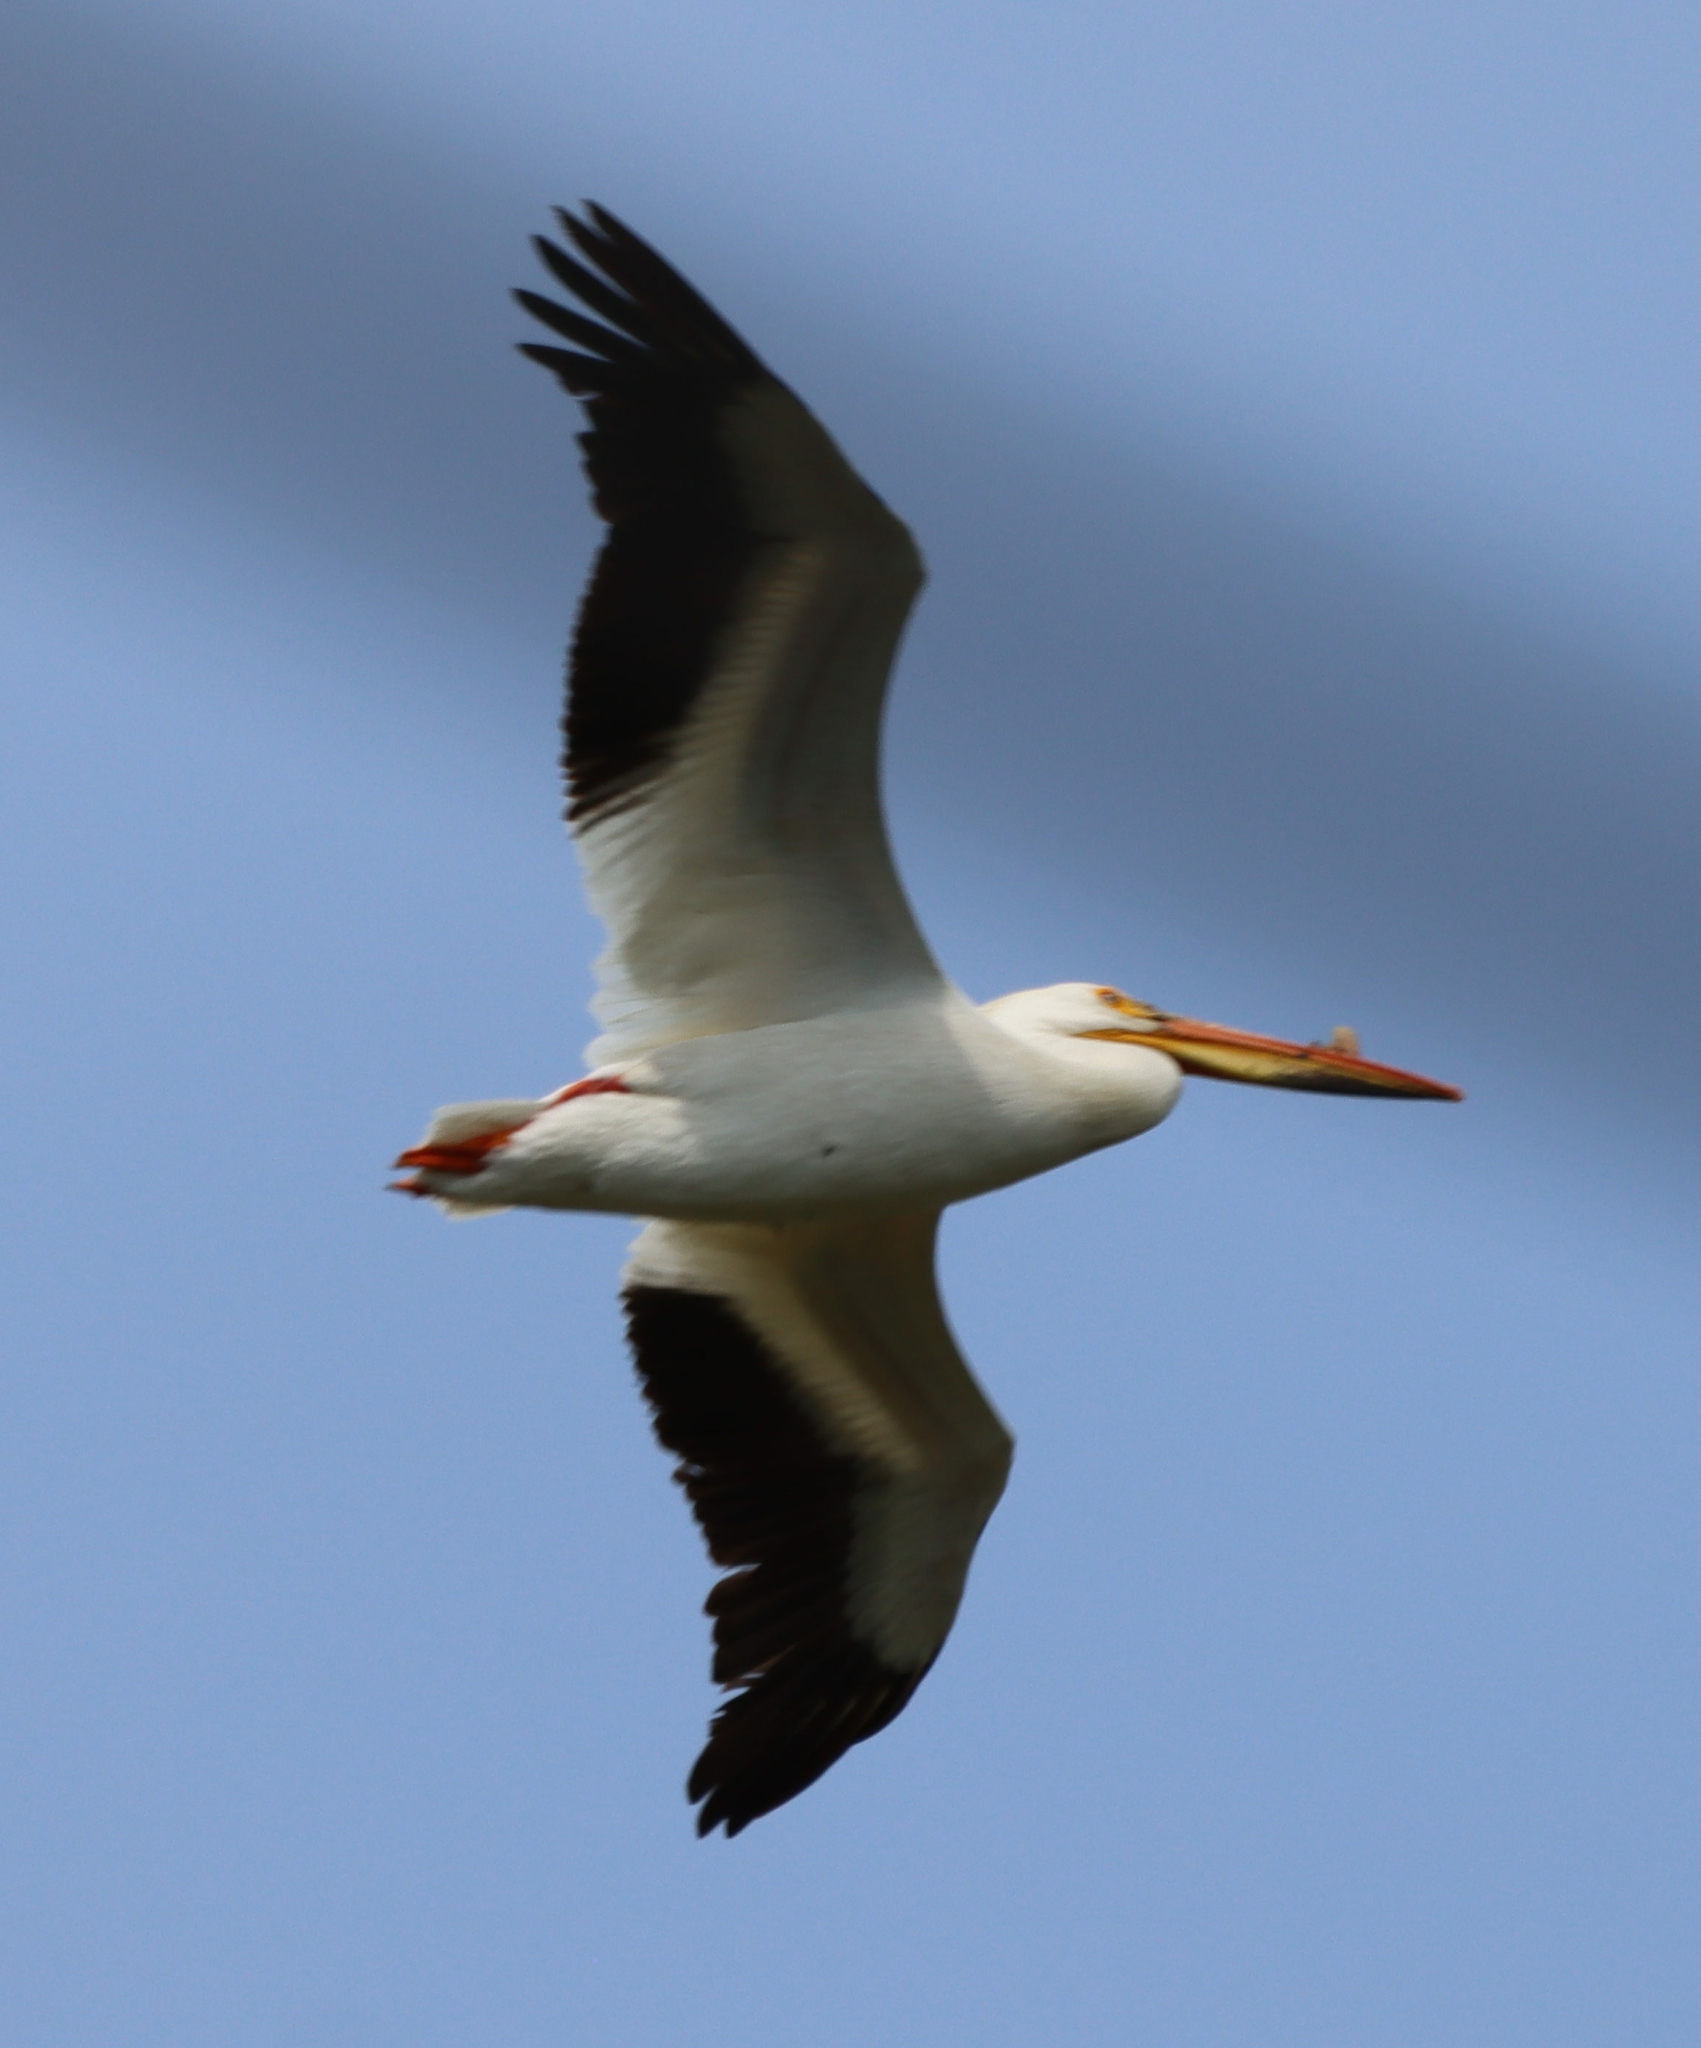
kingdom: Animalia
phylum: Chordata
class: Aves
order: Pelecaniformes
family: Pelecanidae
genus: Pelecanus
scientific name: Pelecanus erythrorhynchos
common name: American white pelican
